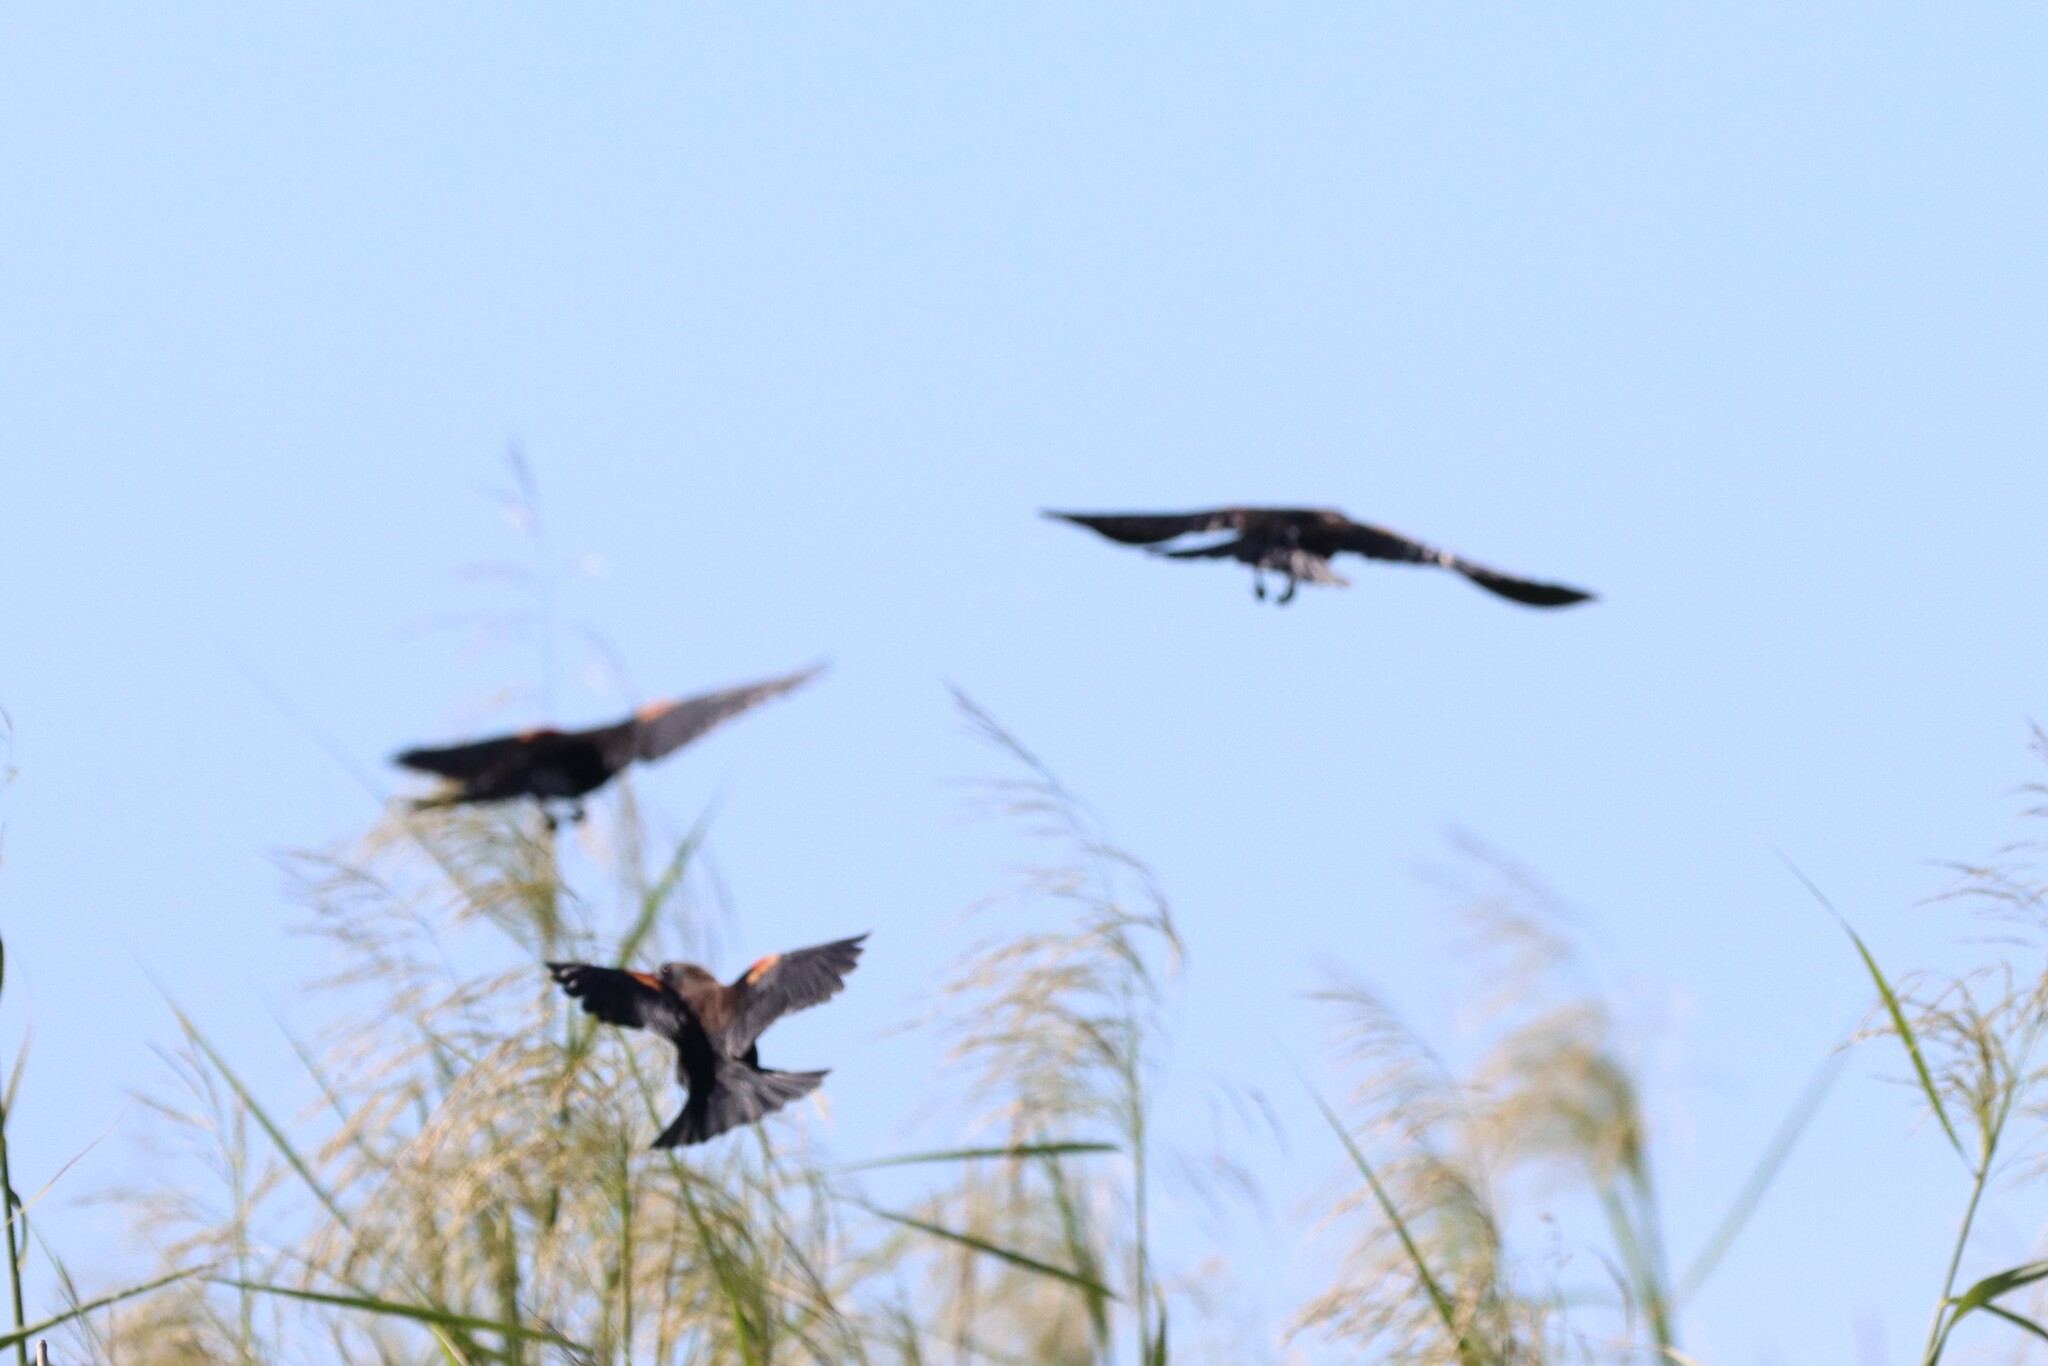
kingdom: Animalia
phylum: Chordata
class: Aves
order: Passeriformes
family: Icteridae
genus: Agelaius
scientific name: Agelaius phoeniceus
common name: Red-winged blackbird
